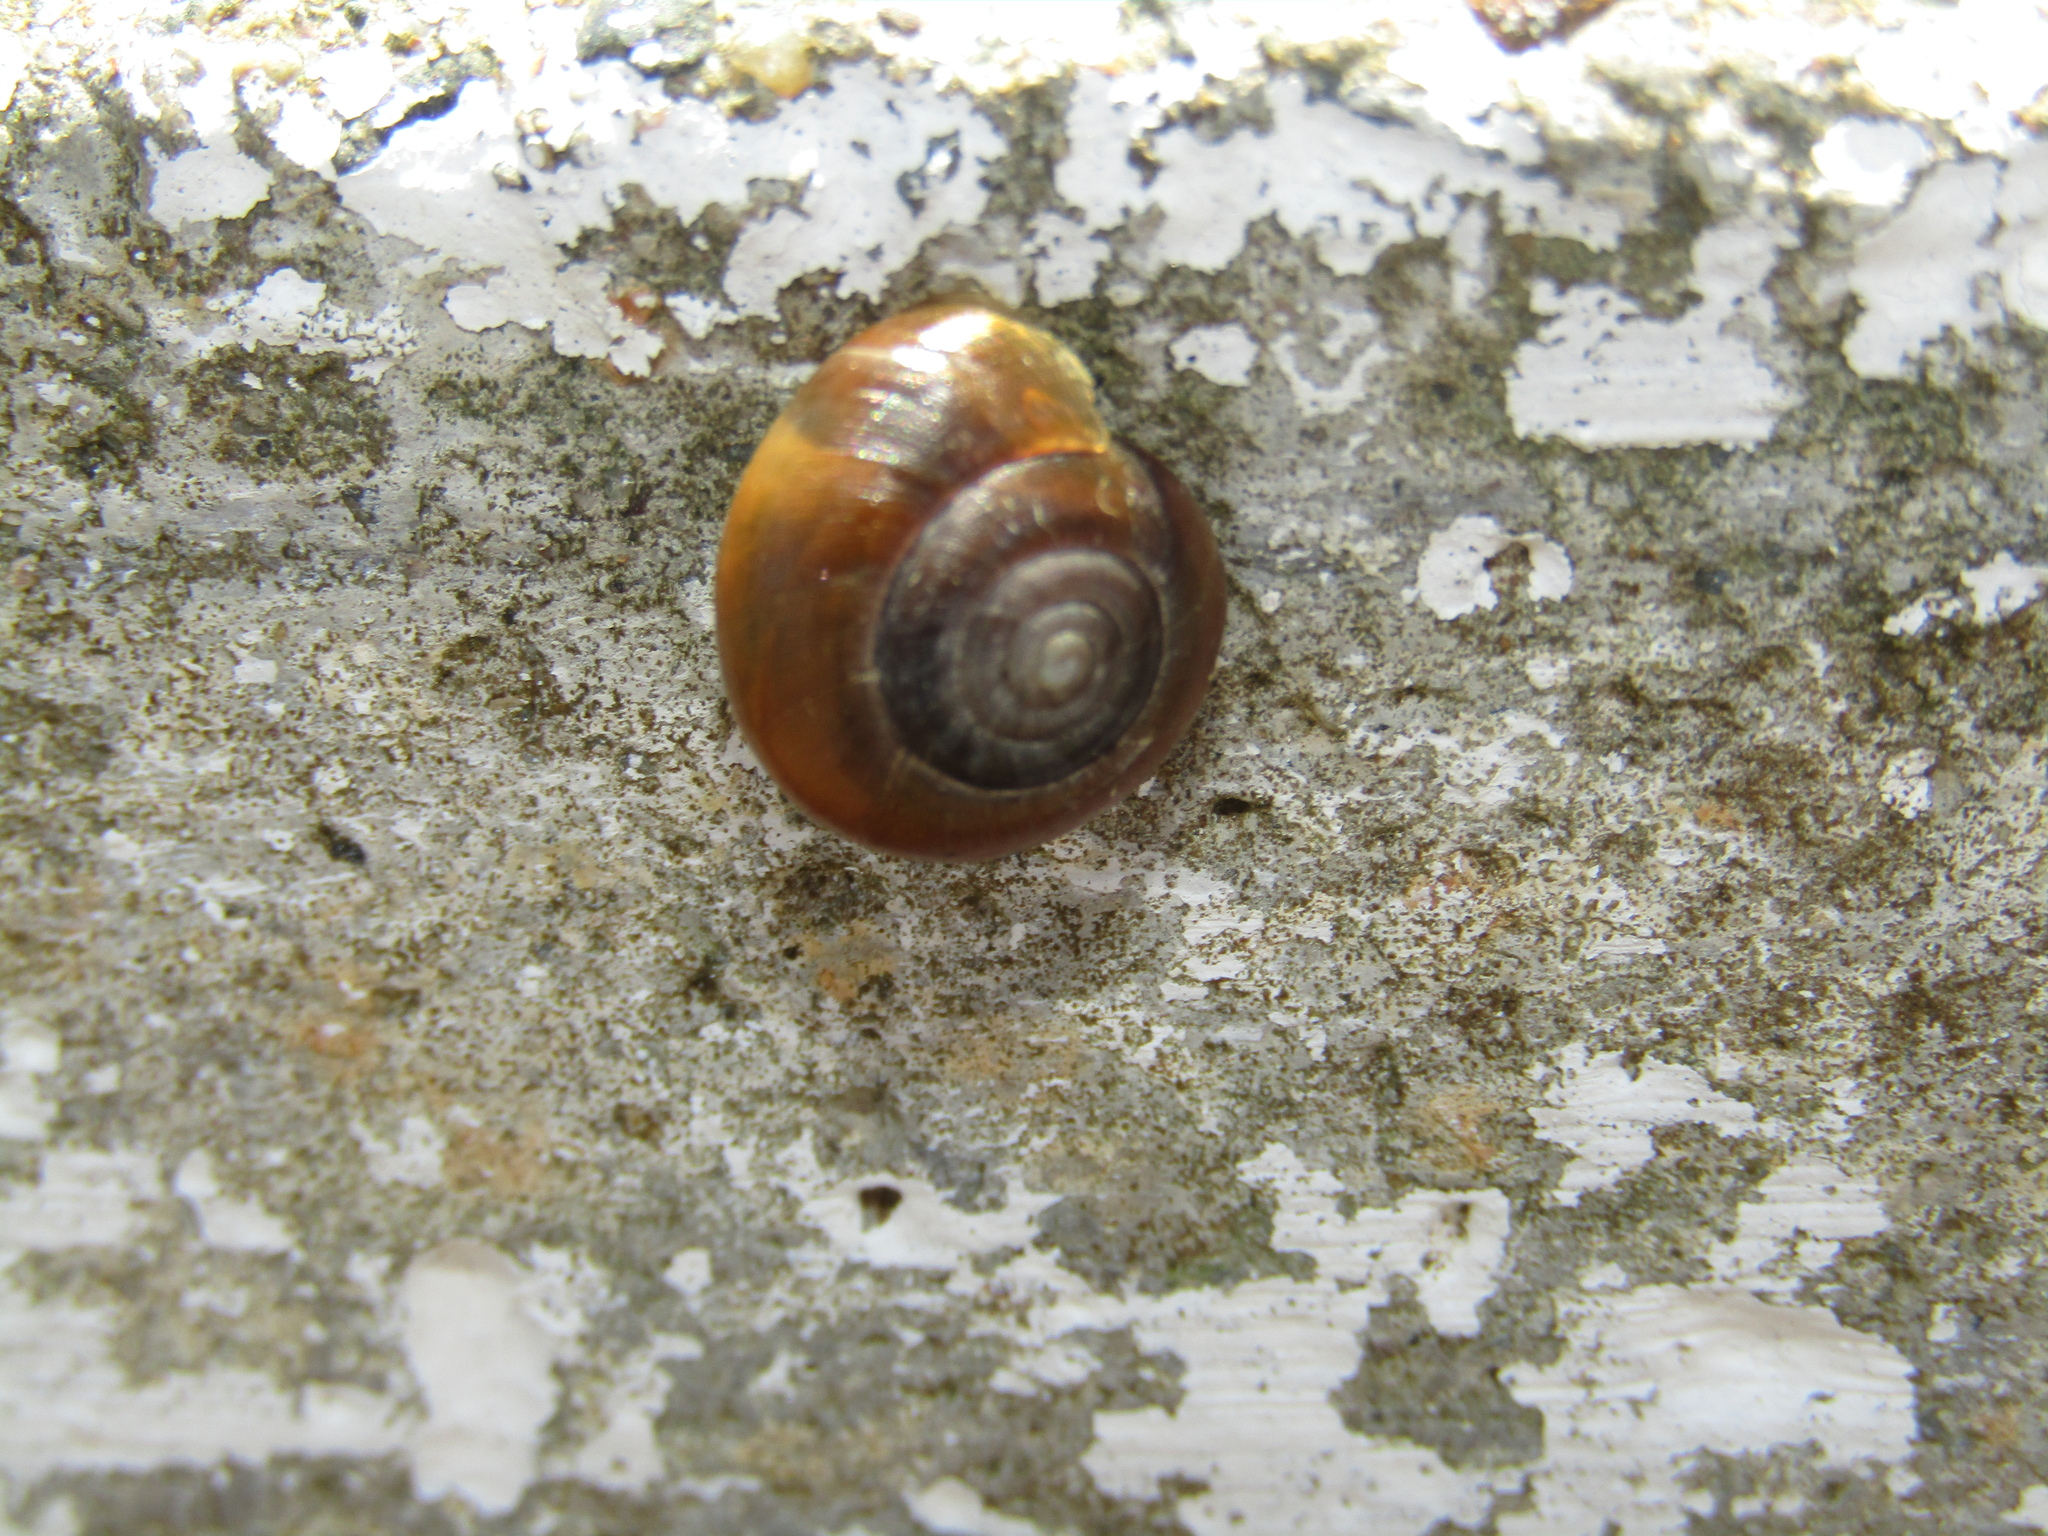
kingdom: Animalia
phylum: Mollusca
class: Gastropoda
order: Stylommatophora
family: Oxychilidae
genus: Oxychilus
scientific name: Oxychilus mingrelicus
